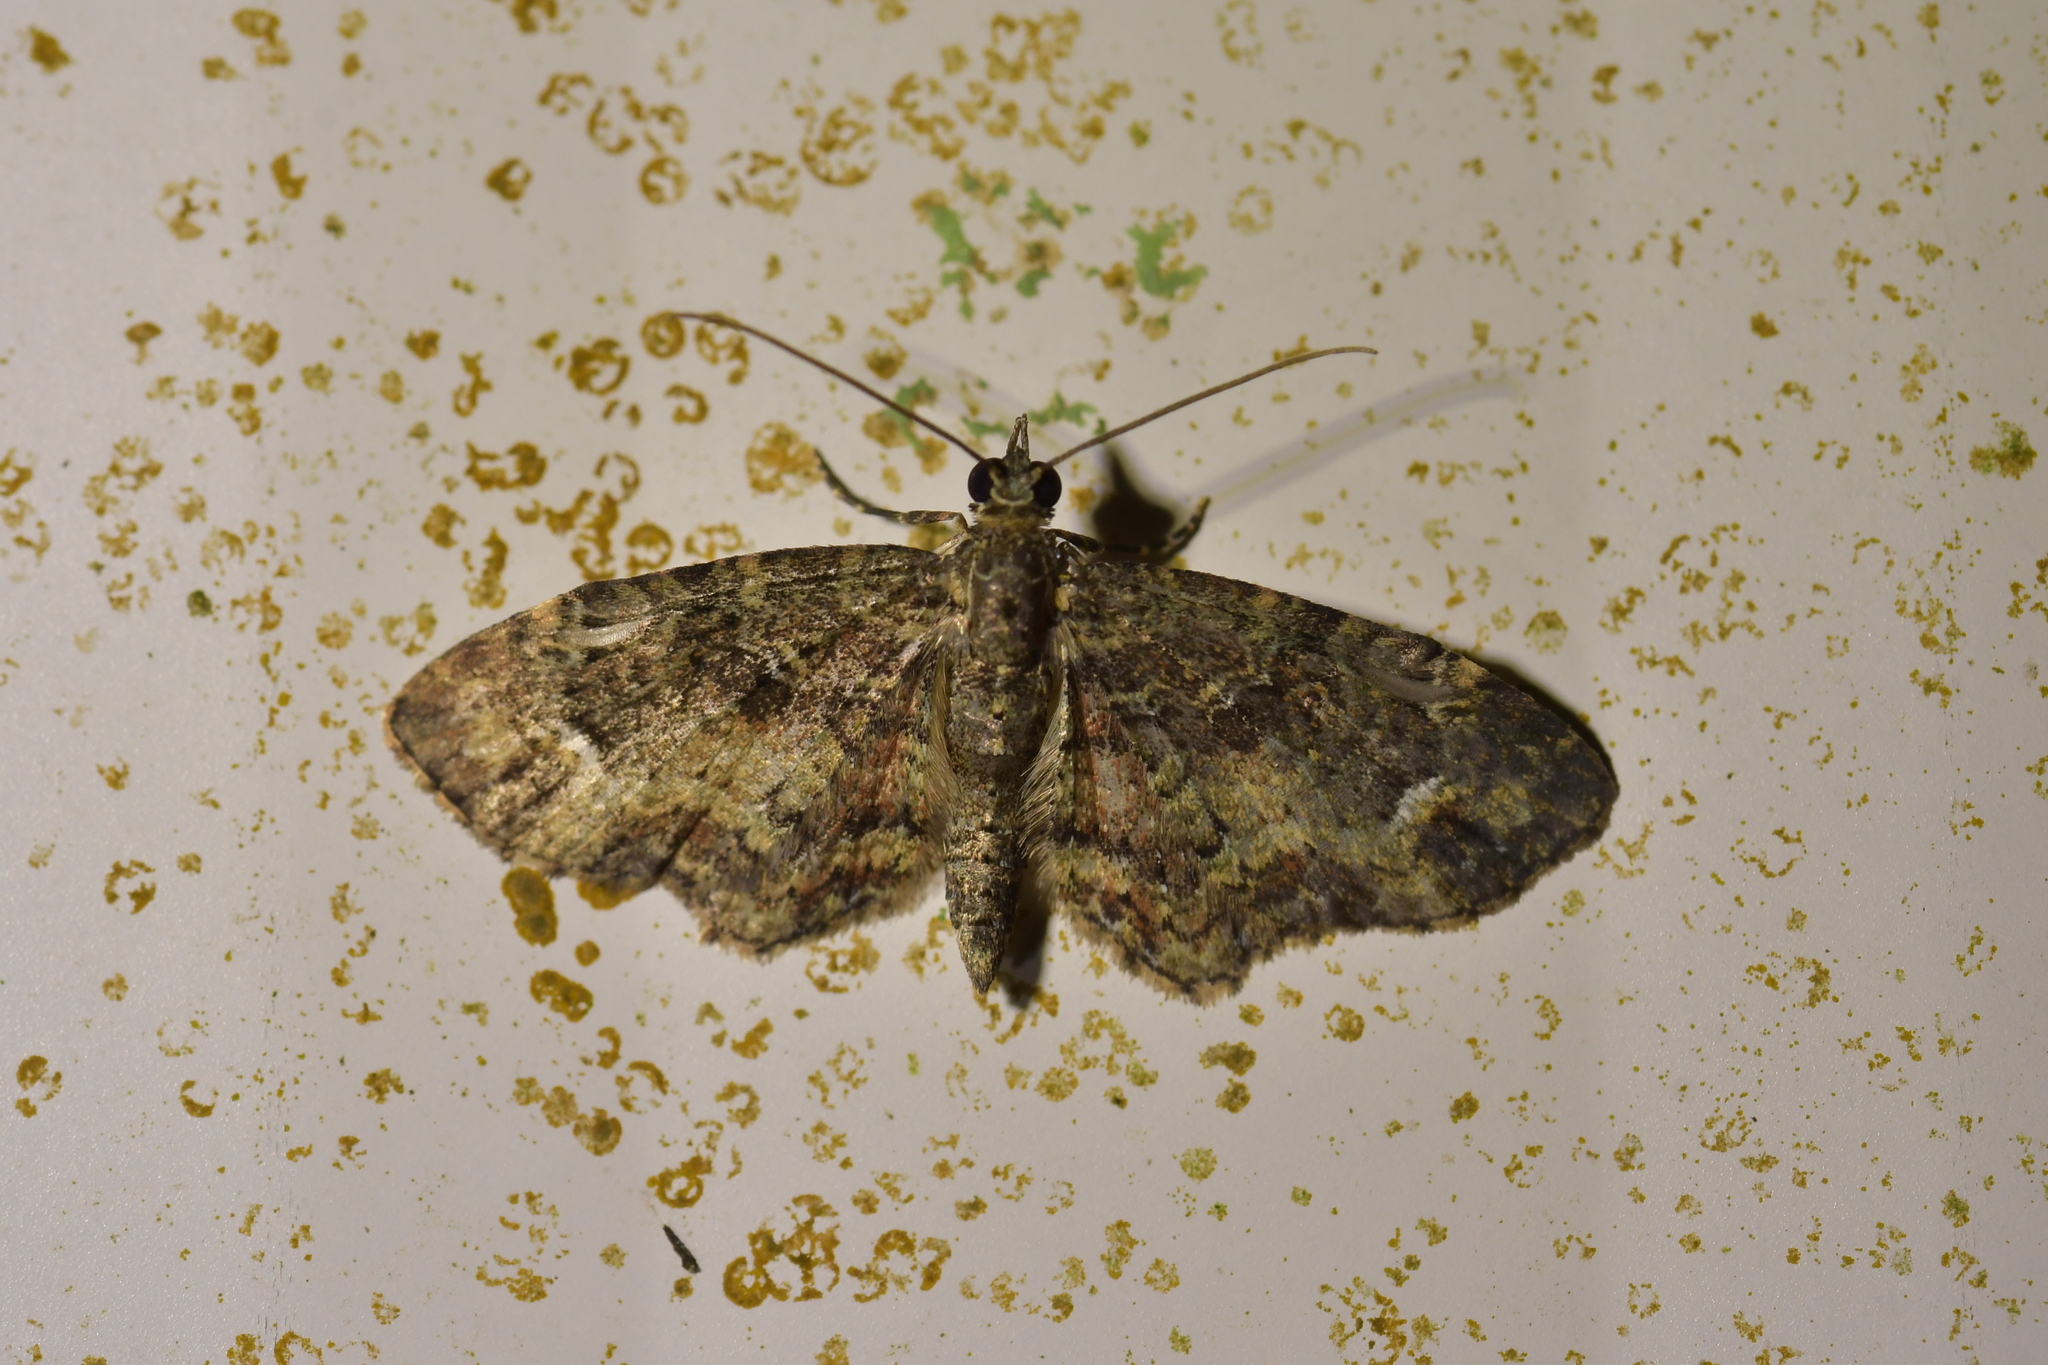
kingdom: Animalia
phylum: Arthropoda
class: Insecta
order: Lepidoptera
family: Geometridae
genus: Pasiphilodes
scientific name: Pasiphilodes testulata
